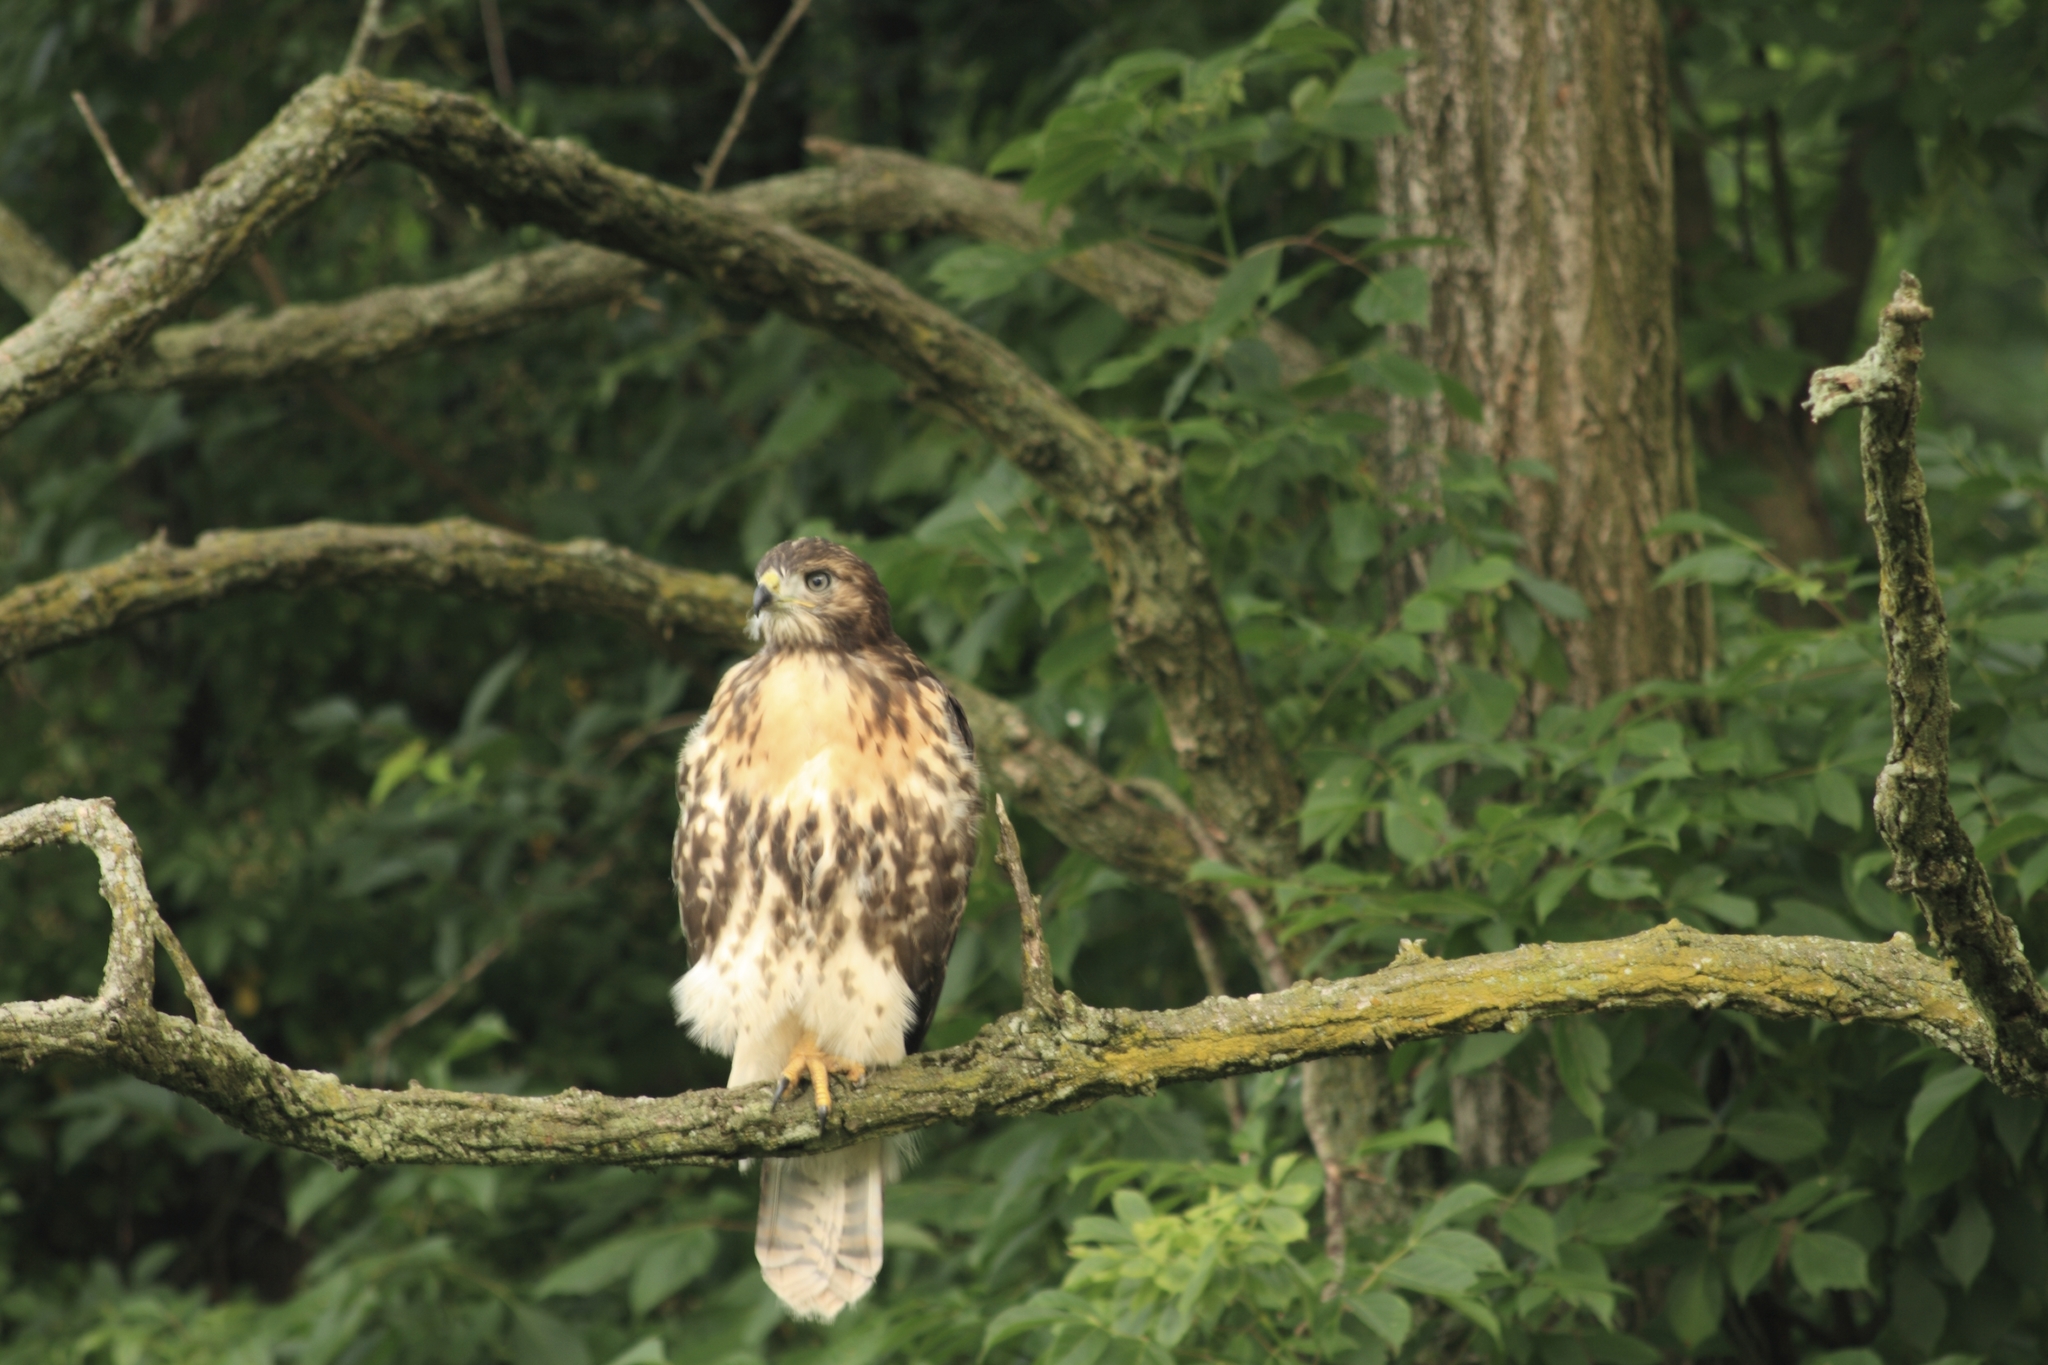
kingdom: Animalia
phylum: Chordata
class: Aves
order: Accipitriformes
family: Accipitridae
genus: Buteo
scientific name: Buteo jamaicensis
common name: Red-tailed hawk
